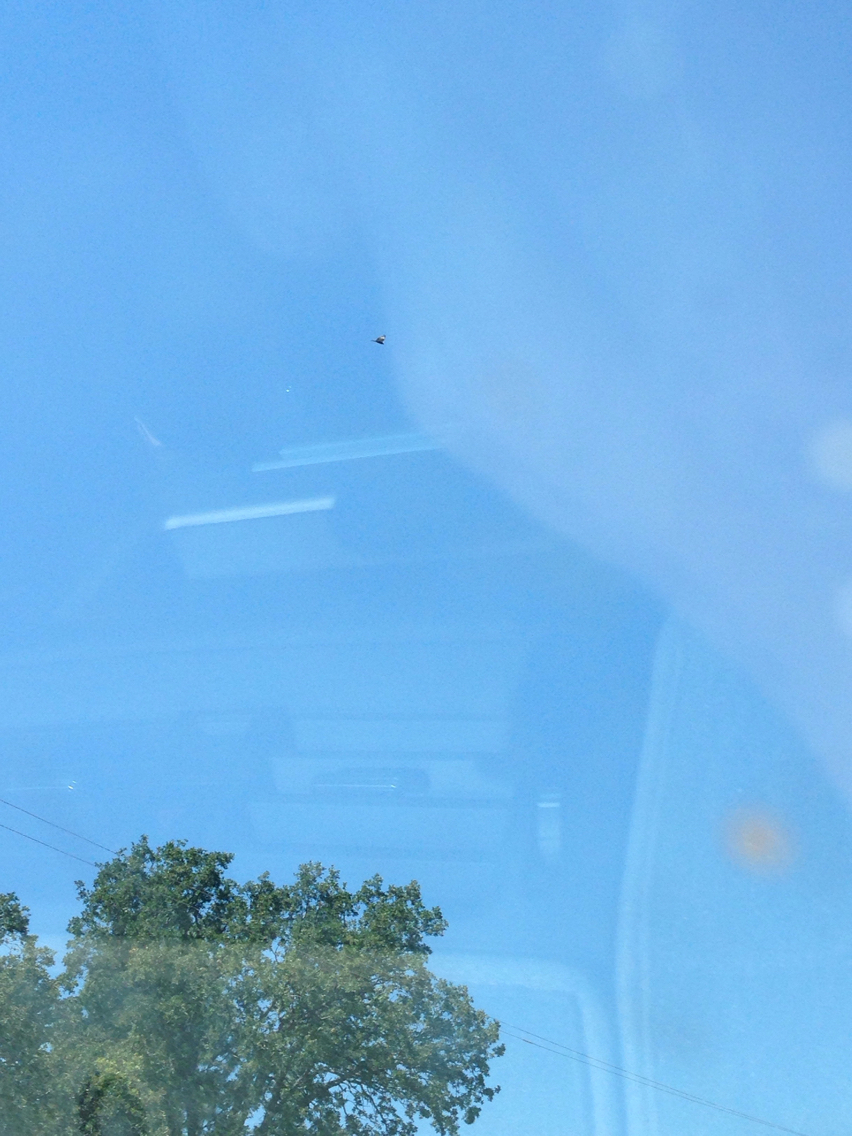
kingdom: Animalia
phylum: Chordata
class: Aves
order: Accipitriformes
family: Cathartidae
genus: Cathartes
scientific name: Cathartes aura
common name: Turkey vulture
